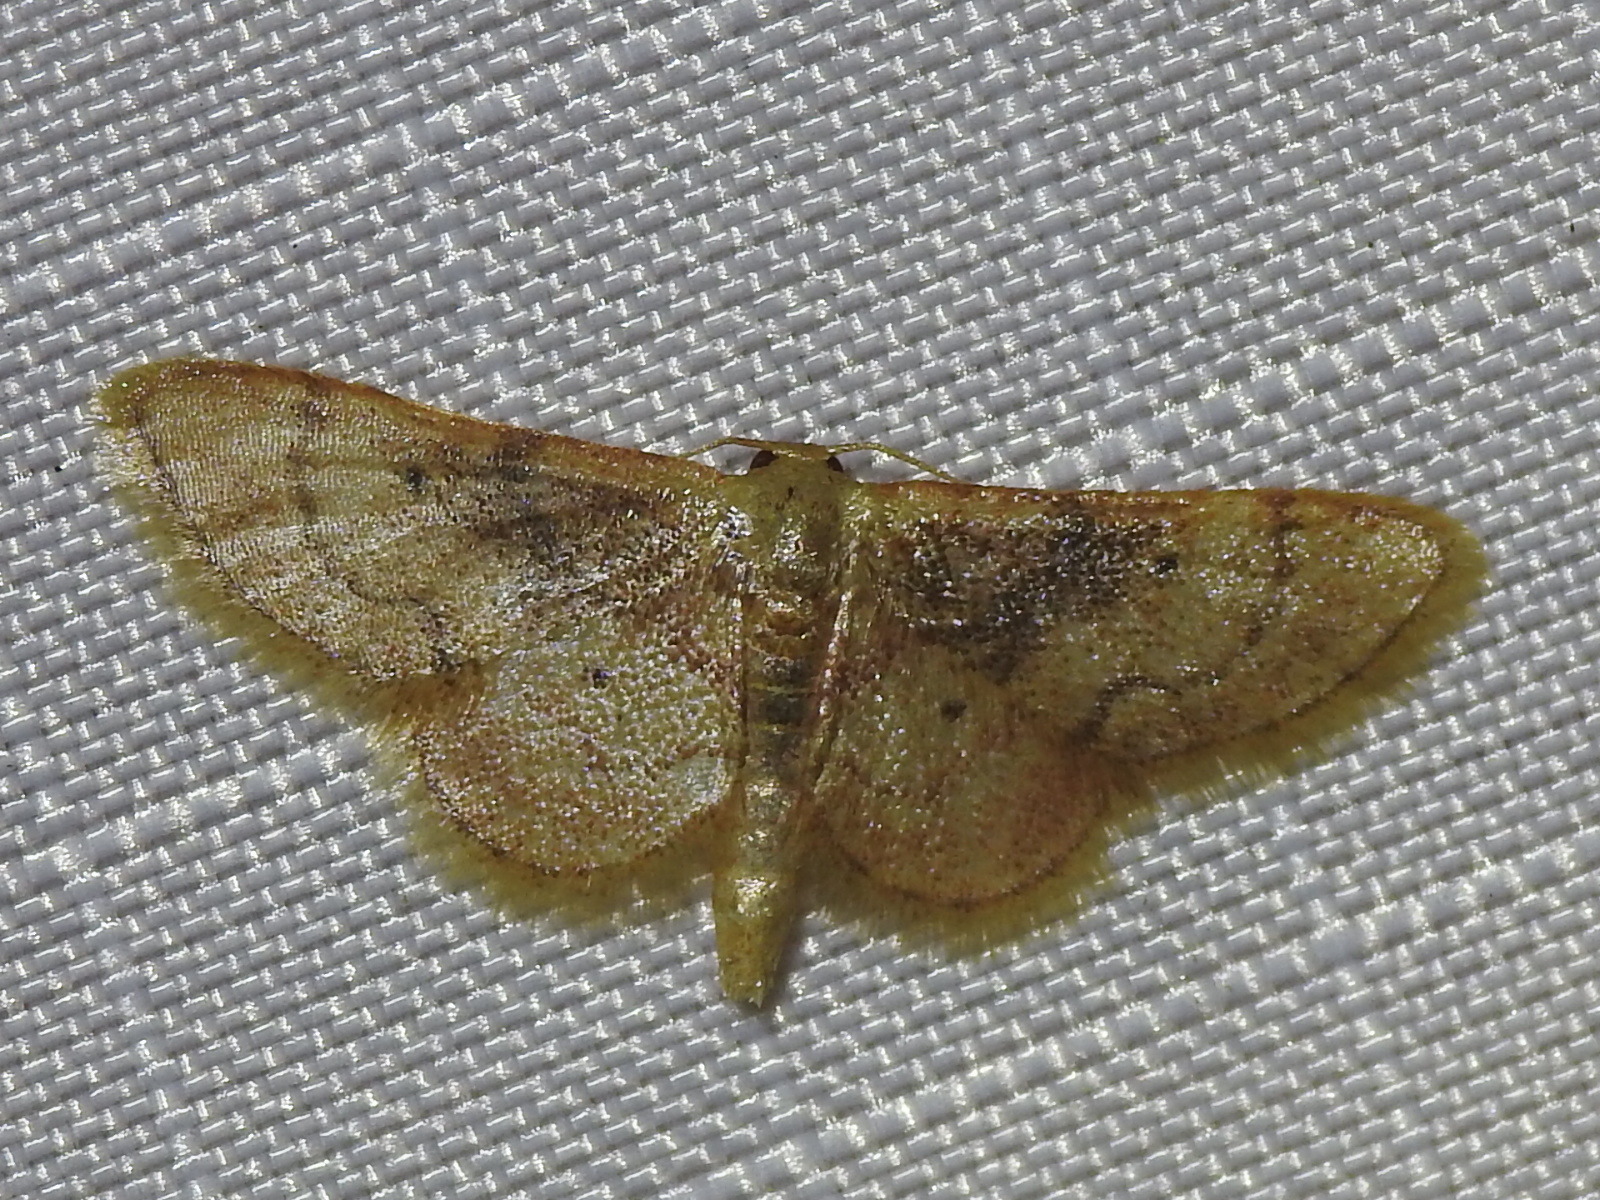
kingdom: Animalia
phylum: Arthropoda
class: Insecta
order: Lepidoptera
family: Geometridae
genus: Idaea
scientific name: Idaea demissaria
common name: Red-bordered wave
